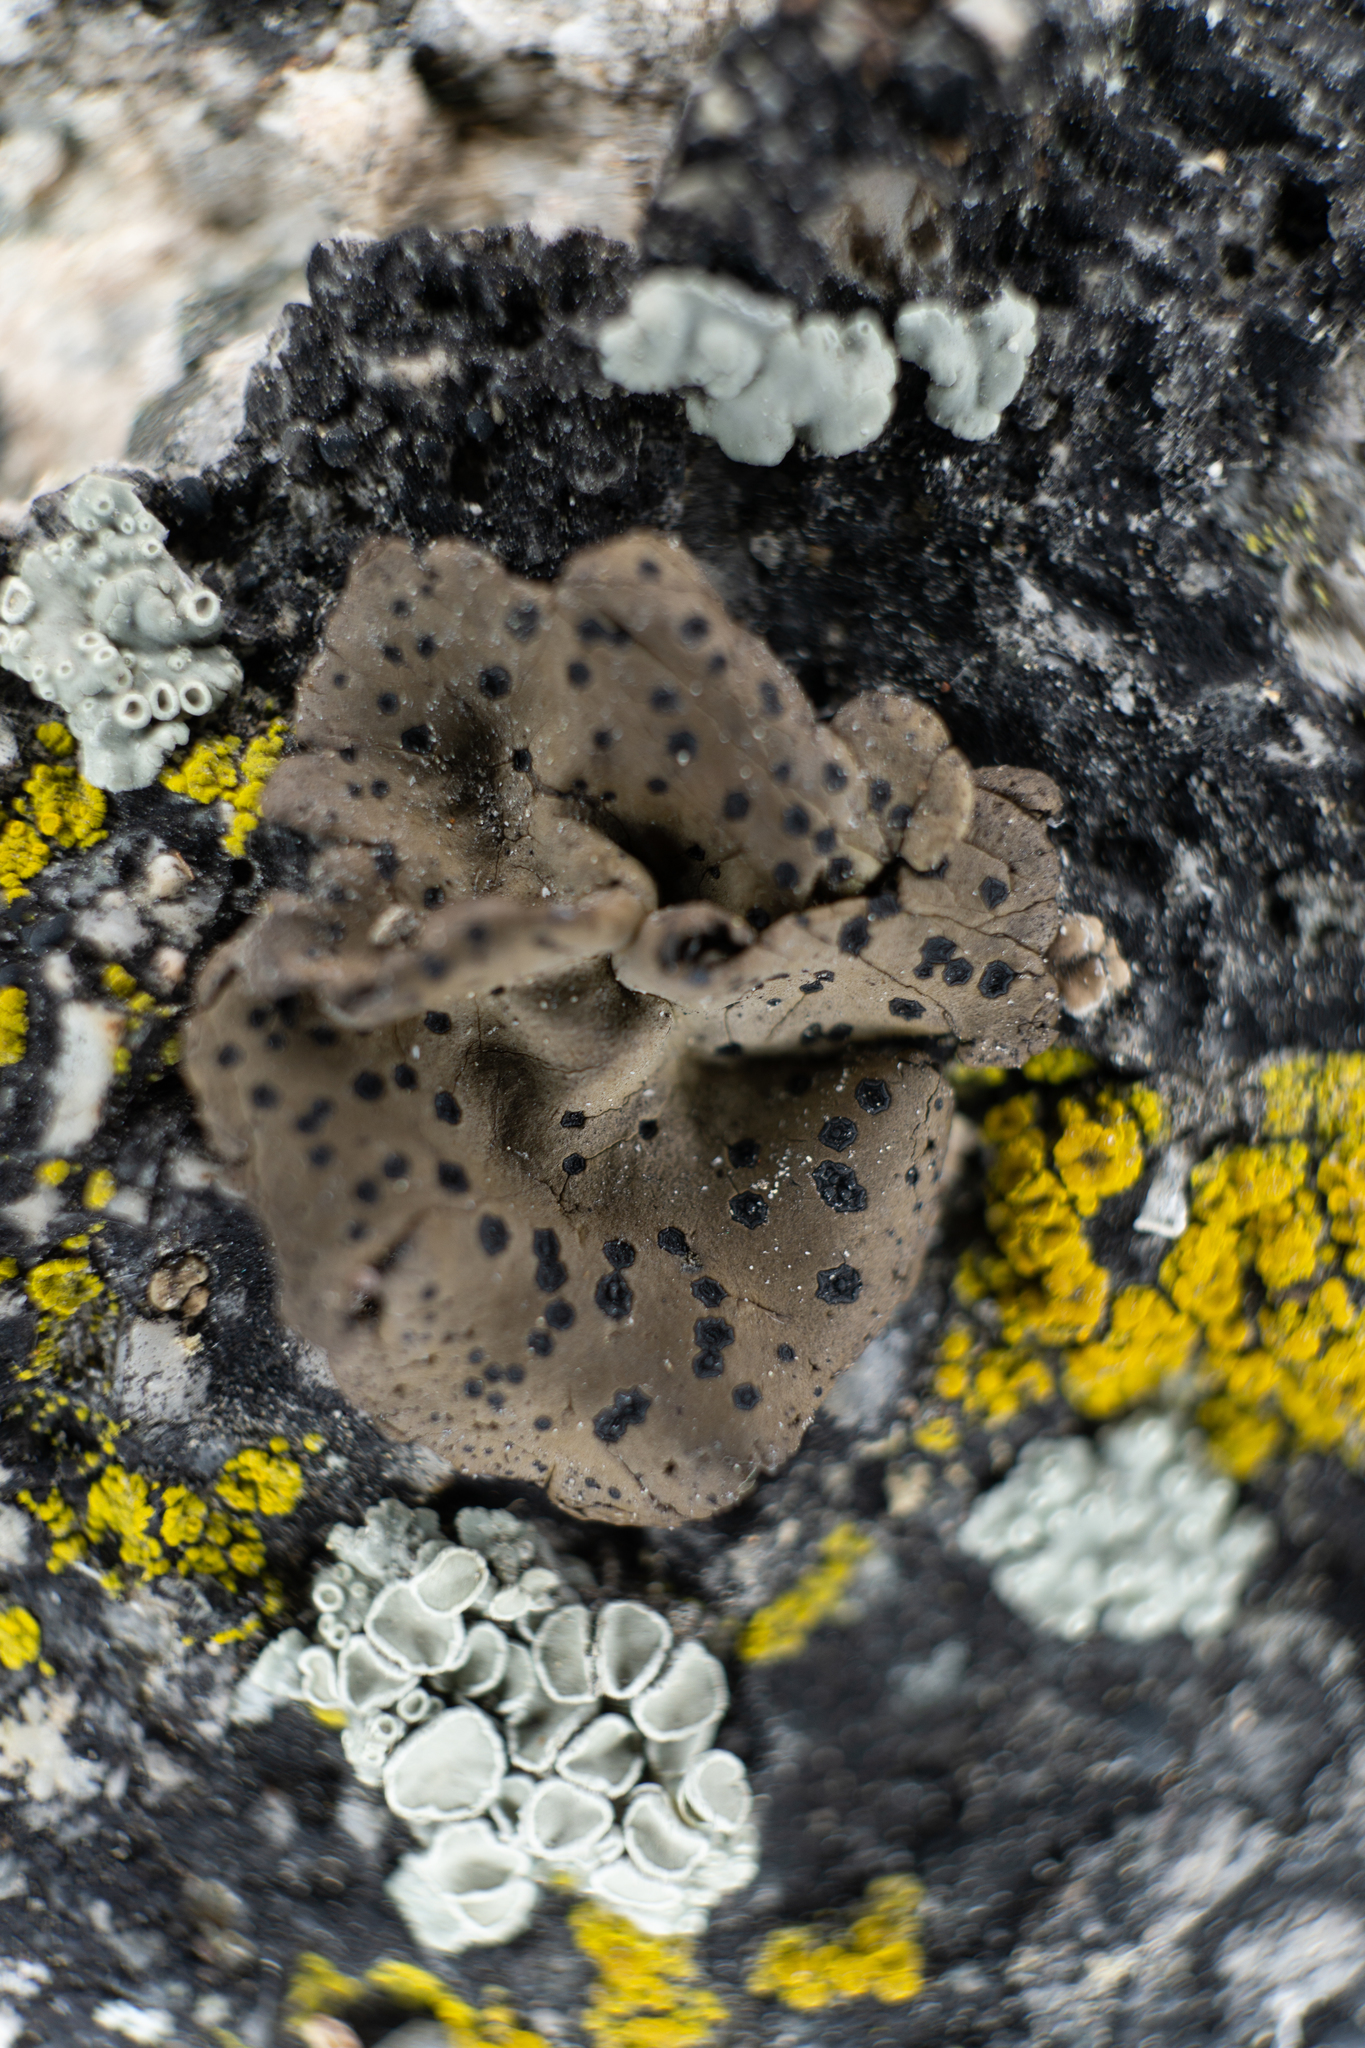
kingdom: Fungi
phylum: Ascomycota
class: Lecanoromycetes
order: Umbilicariales
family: Umbilicariaceae
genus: Umbilicaria
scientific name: Umbilicaria phaea
